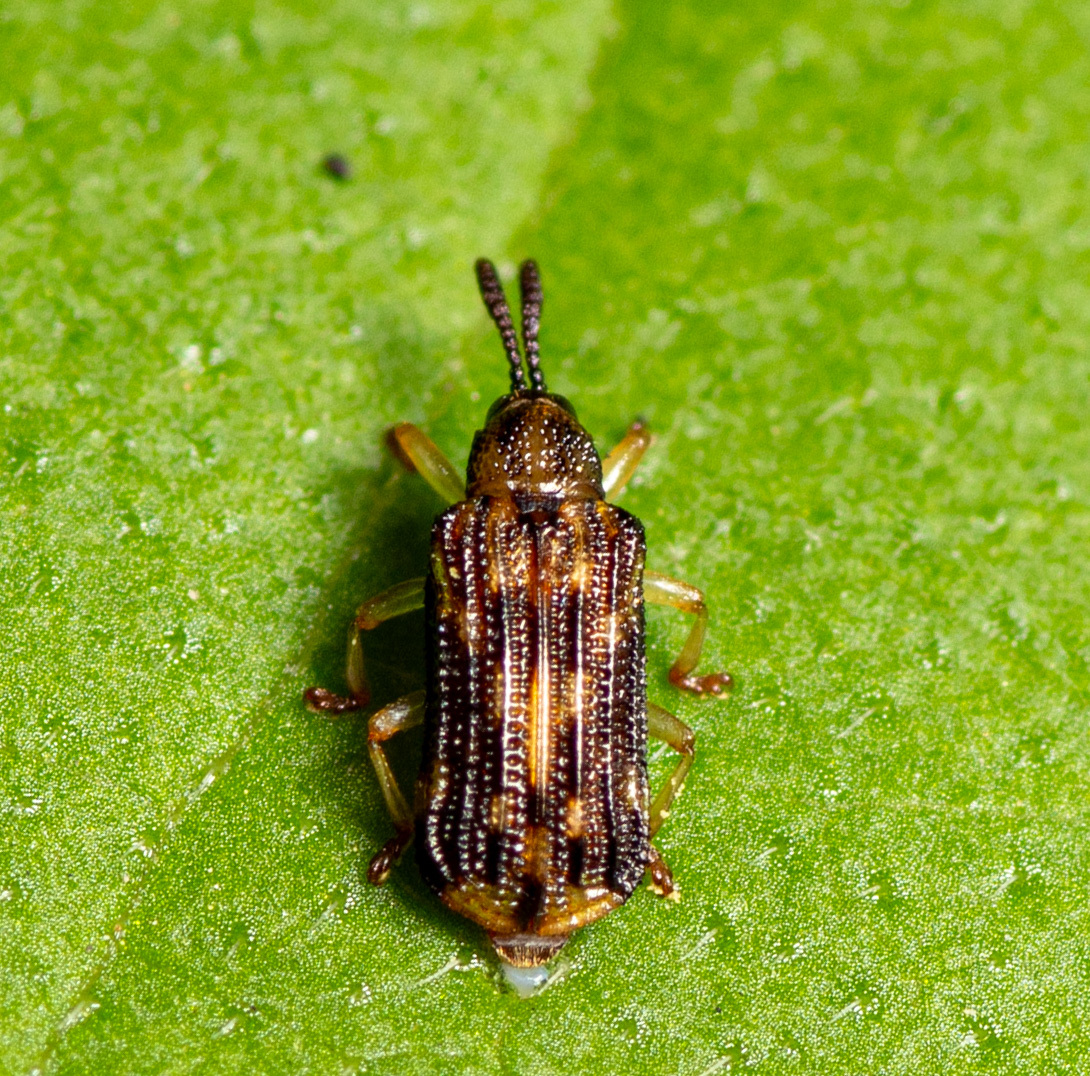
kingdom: Animalia
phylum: Arthropoda
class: Insecta
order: Coleoptera
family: Chrysomelidae
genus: Sumitrosis
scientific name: Sumitrosis inaequalis
